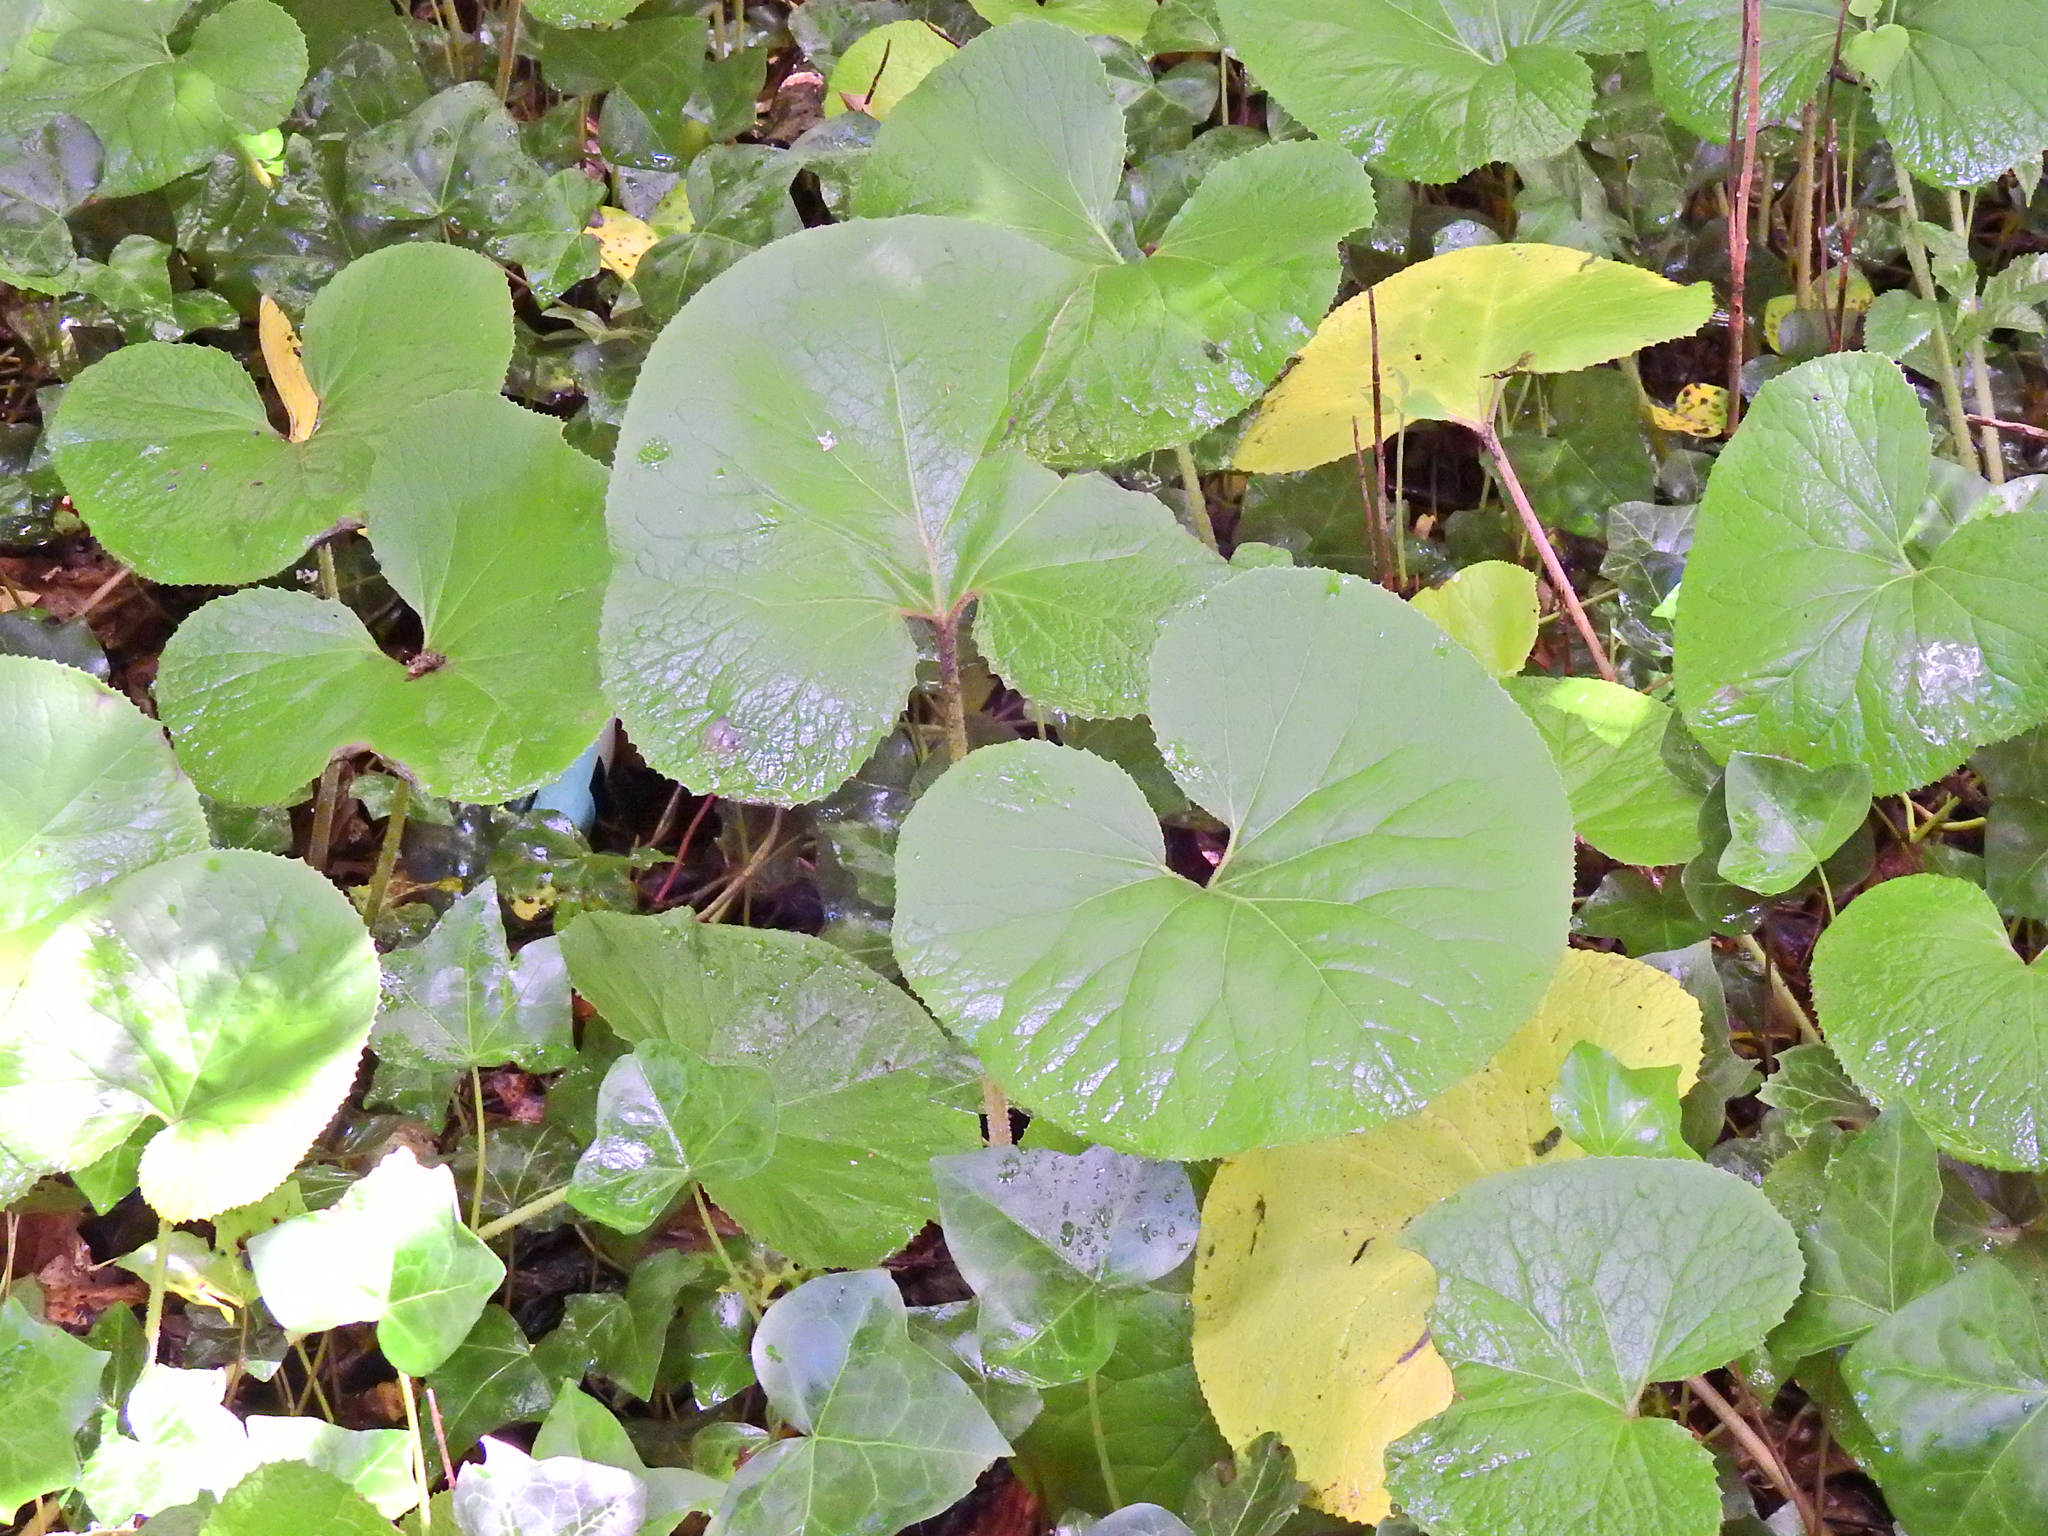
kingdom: Plantae
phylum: Tracheophyta
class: Magnoliopsida
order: Asterales
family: Asteraceae
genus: Petasites
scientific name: Petasites pyrenaicus
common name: Winter heliotrope
